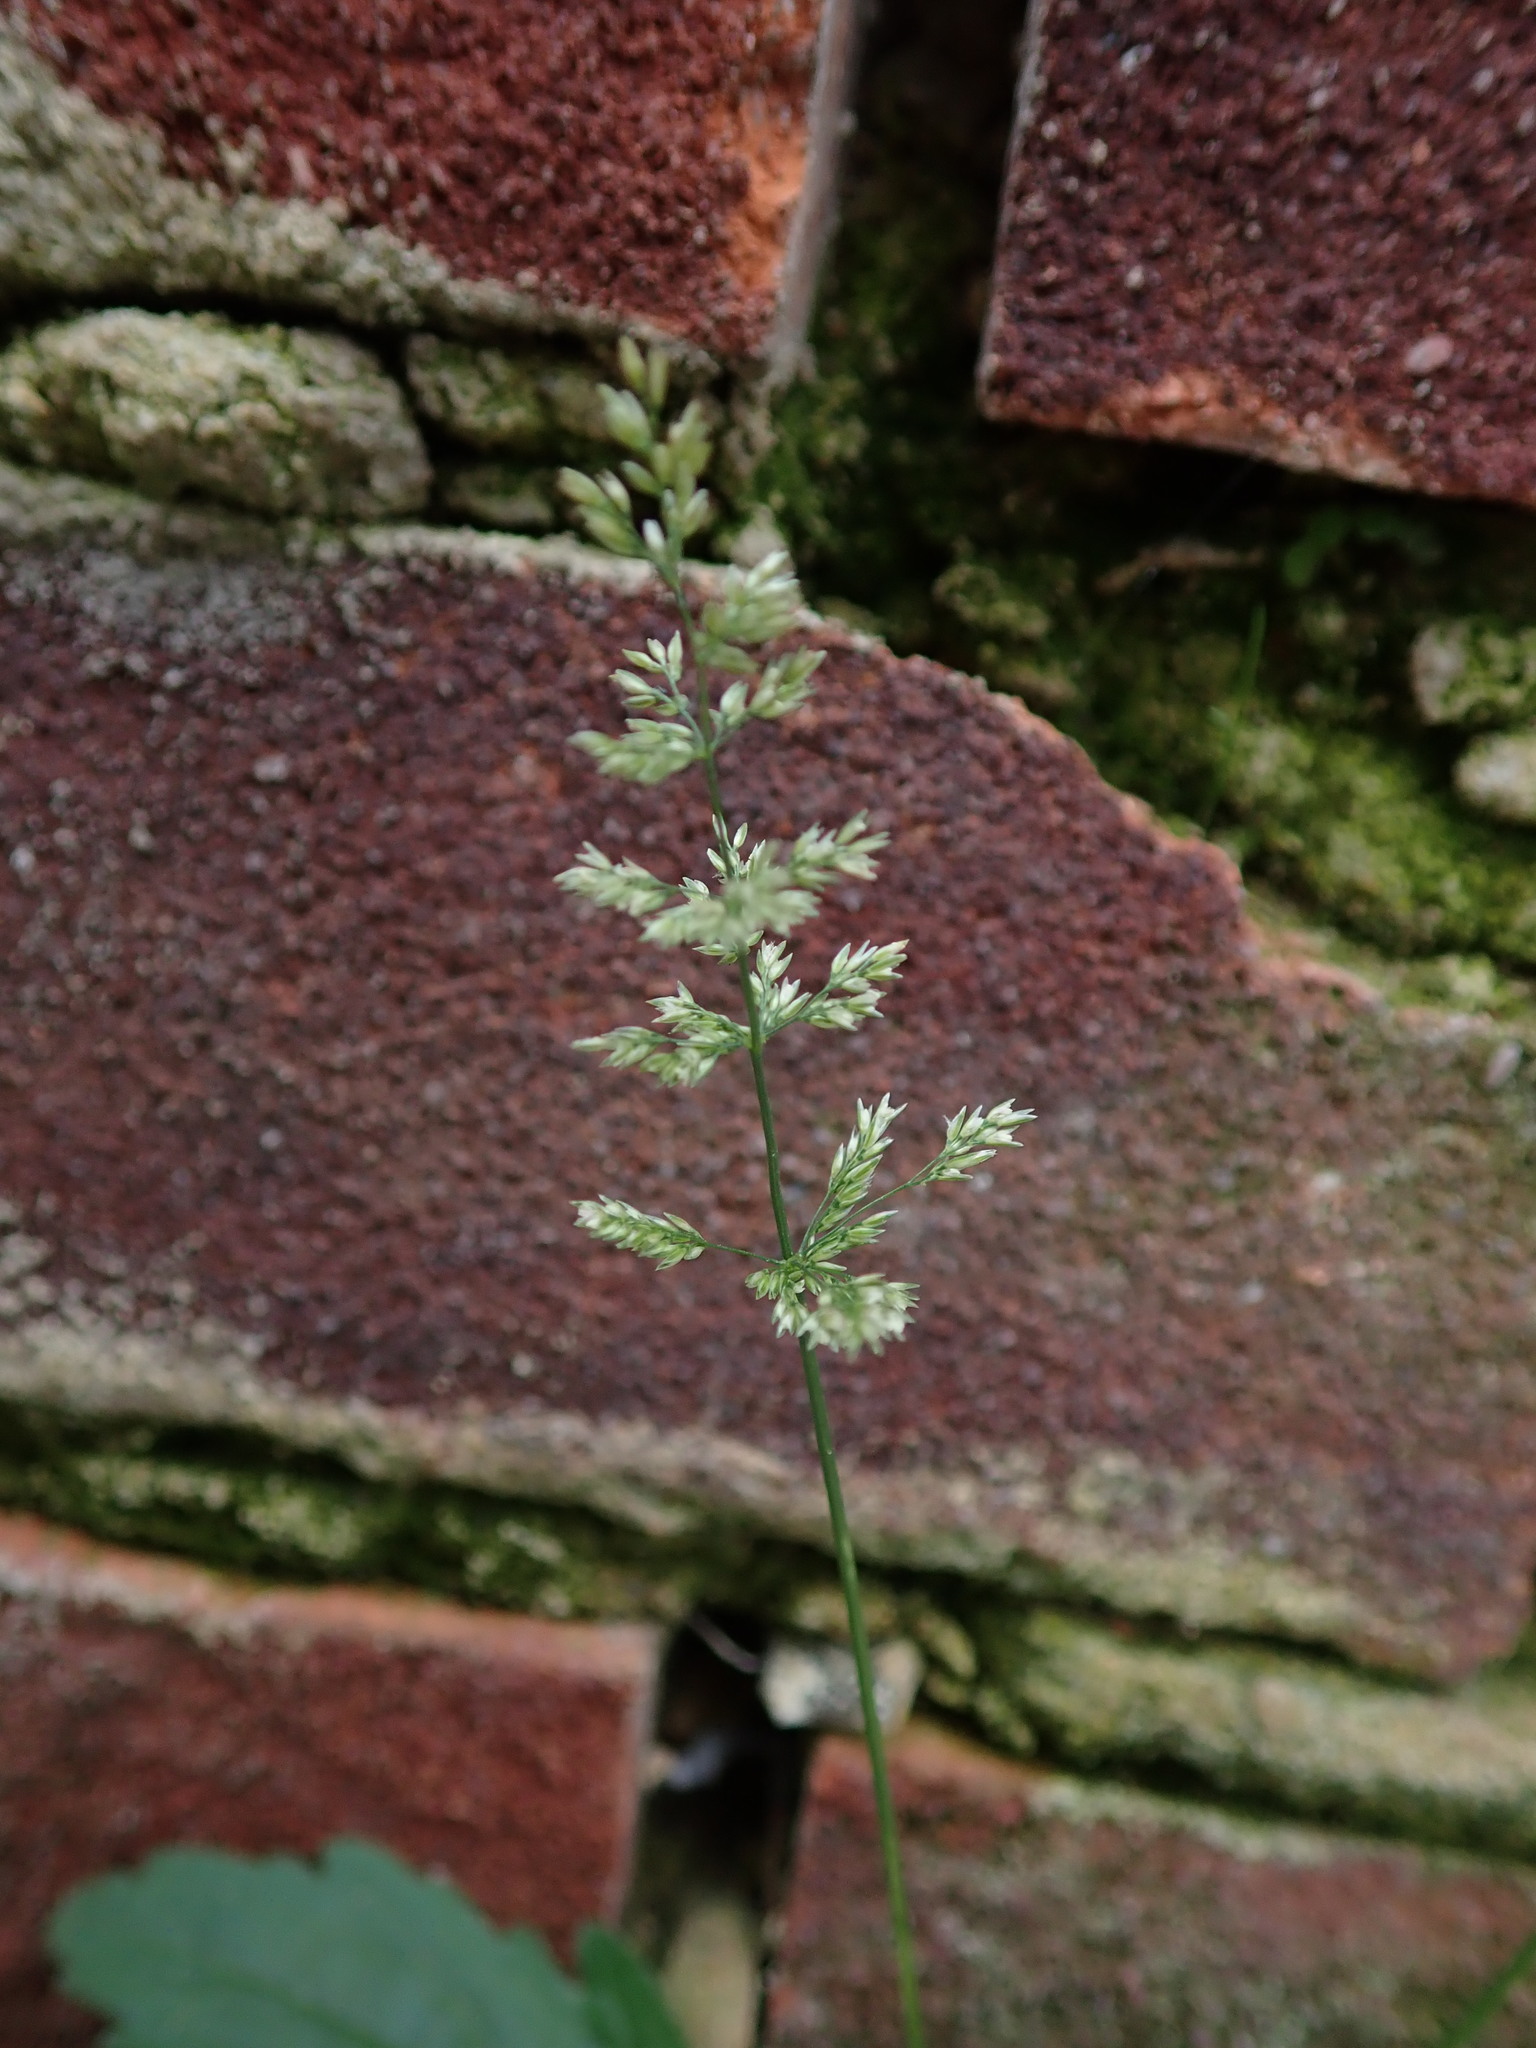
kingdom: Plantae
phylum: Tracheophyta
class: Liliopsida
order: Poales
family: Poaceae
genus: Polypogon
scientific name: Polypogon viridis
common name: Water bent
